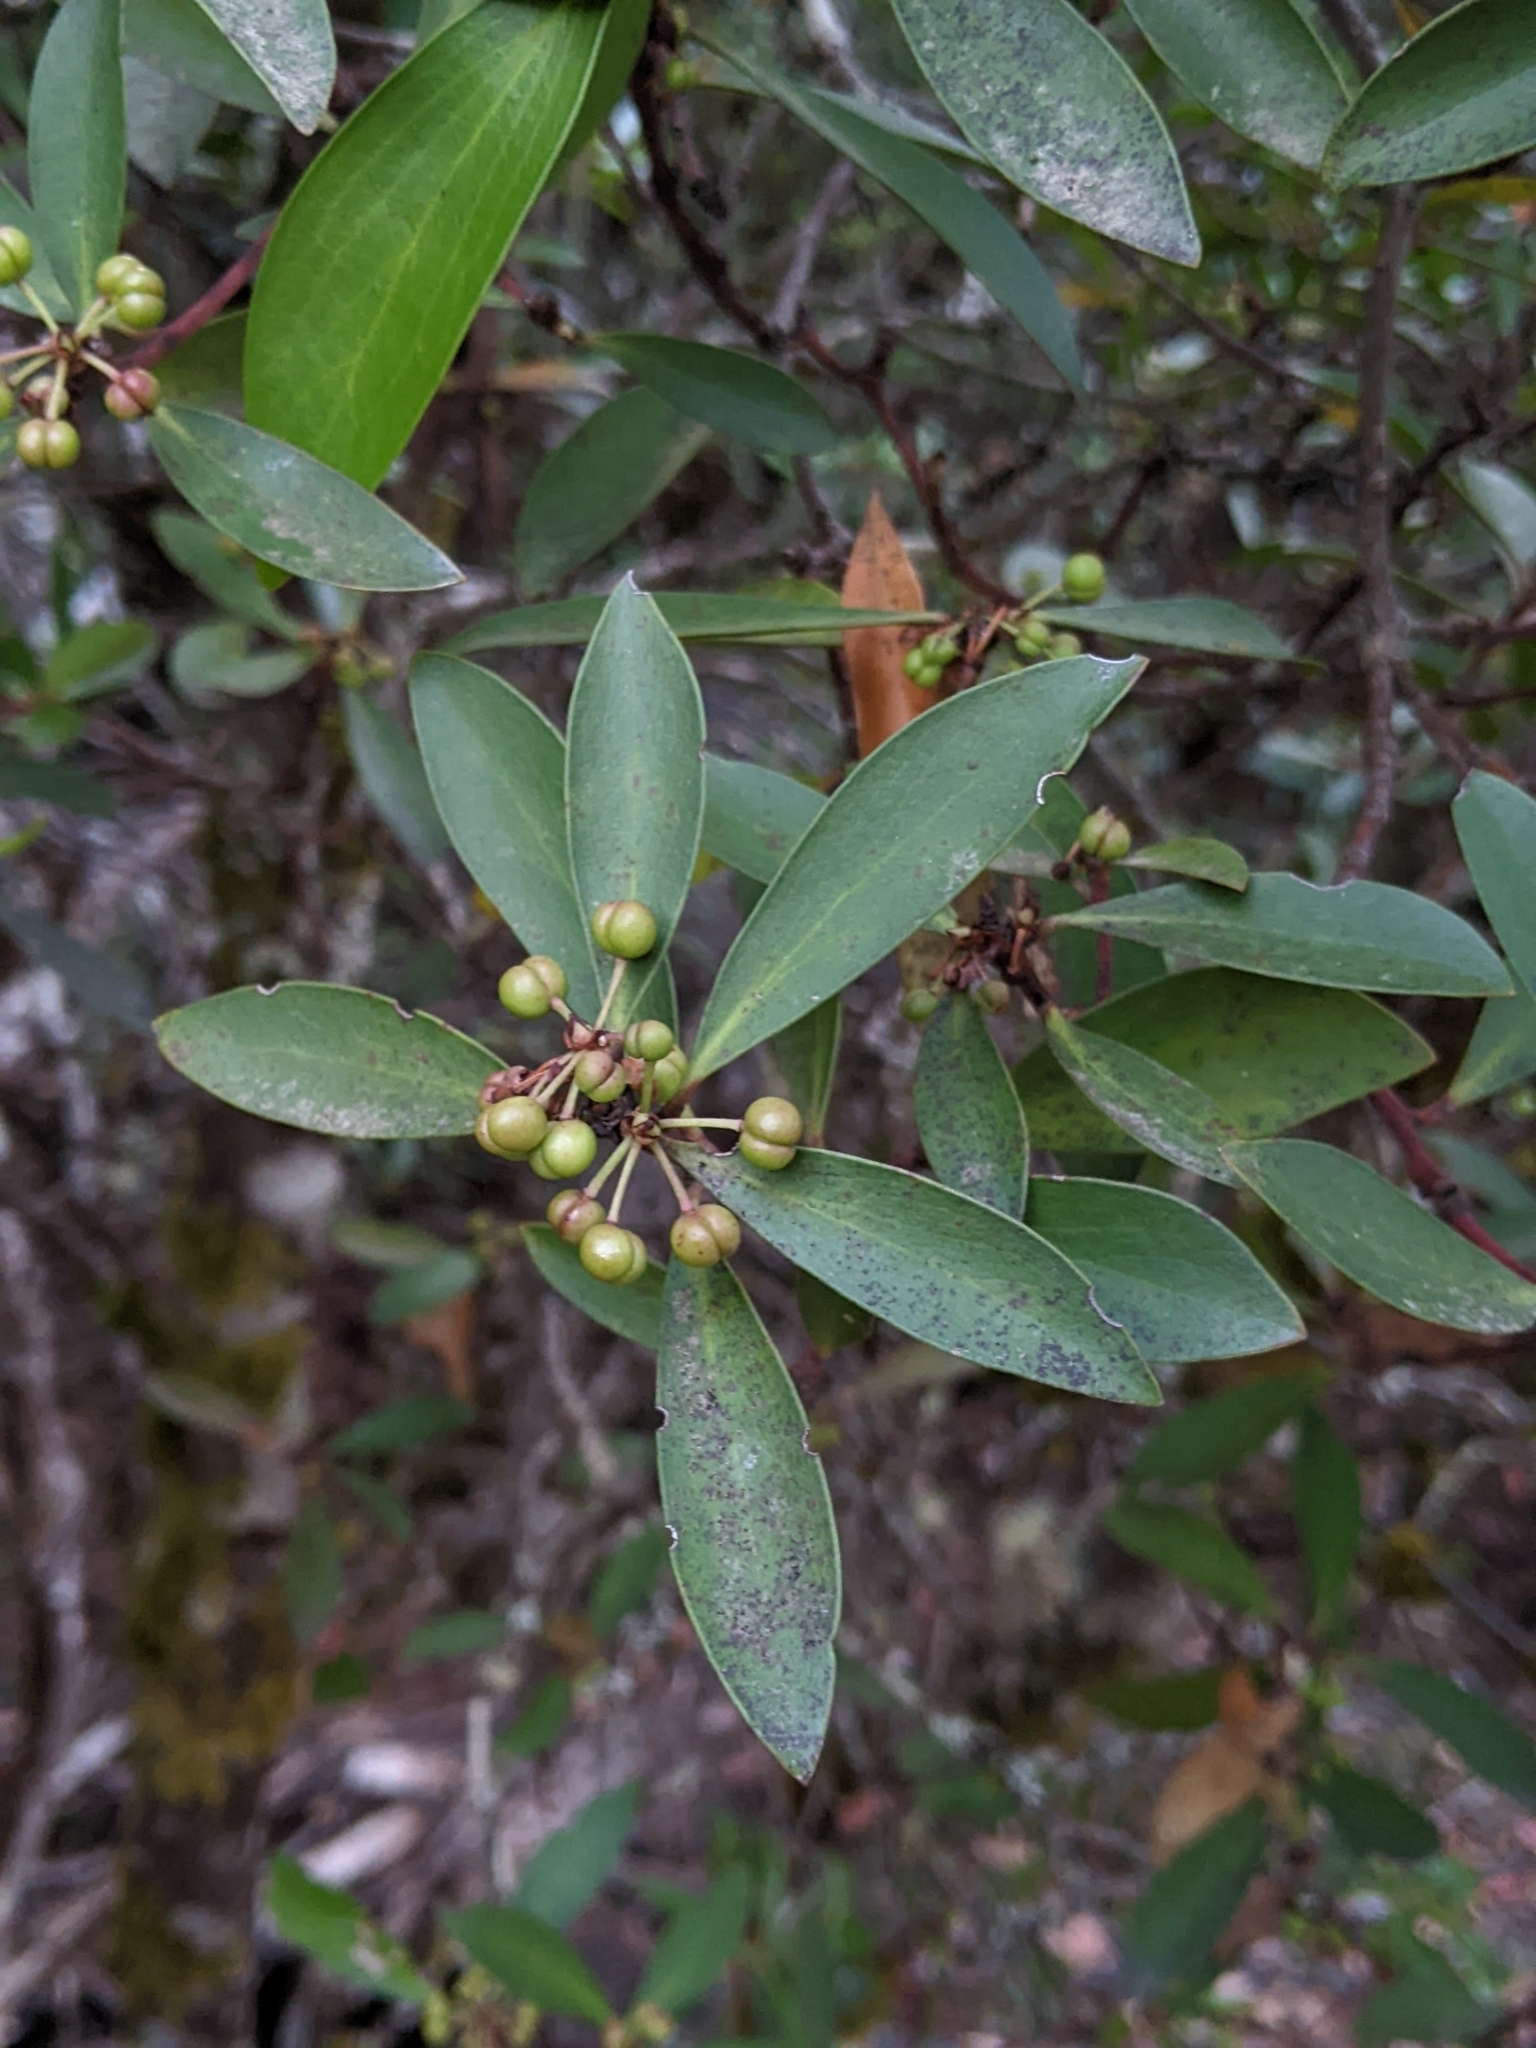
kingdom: Plantae
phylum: Tracheophyta
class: Magnoliopsida
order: Canellales
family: Winteraceae
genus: Drimys
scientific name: Drimys aromatica
